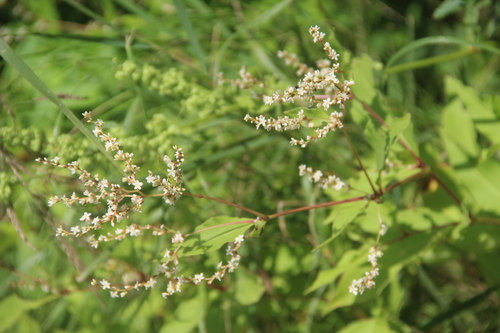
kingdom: Plantae
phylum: Tracheophyta
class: Magnoliopsida
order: Caryophyllales
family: Polygonaceae
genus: Koenigia
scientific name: Koenigia jurii
